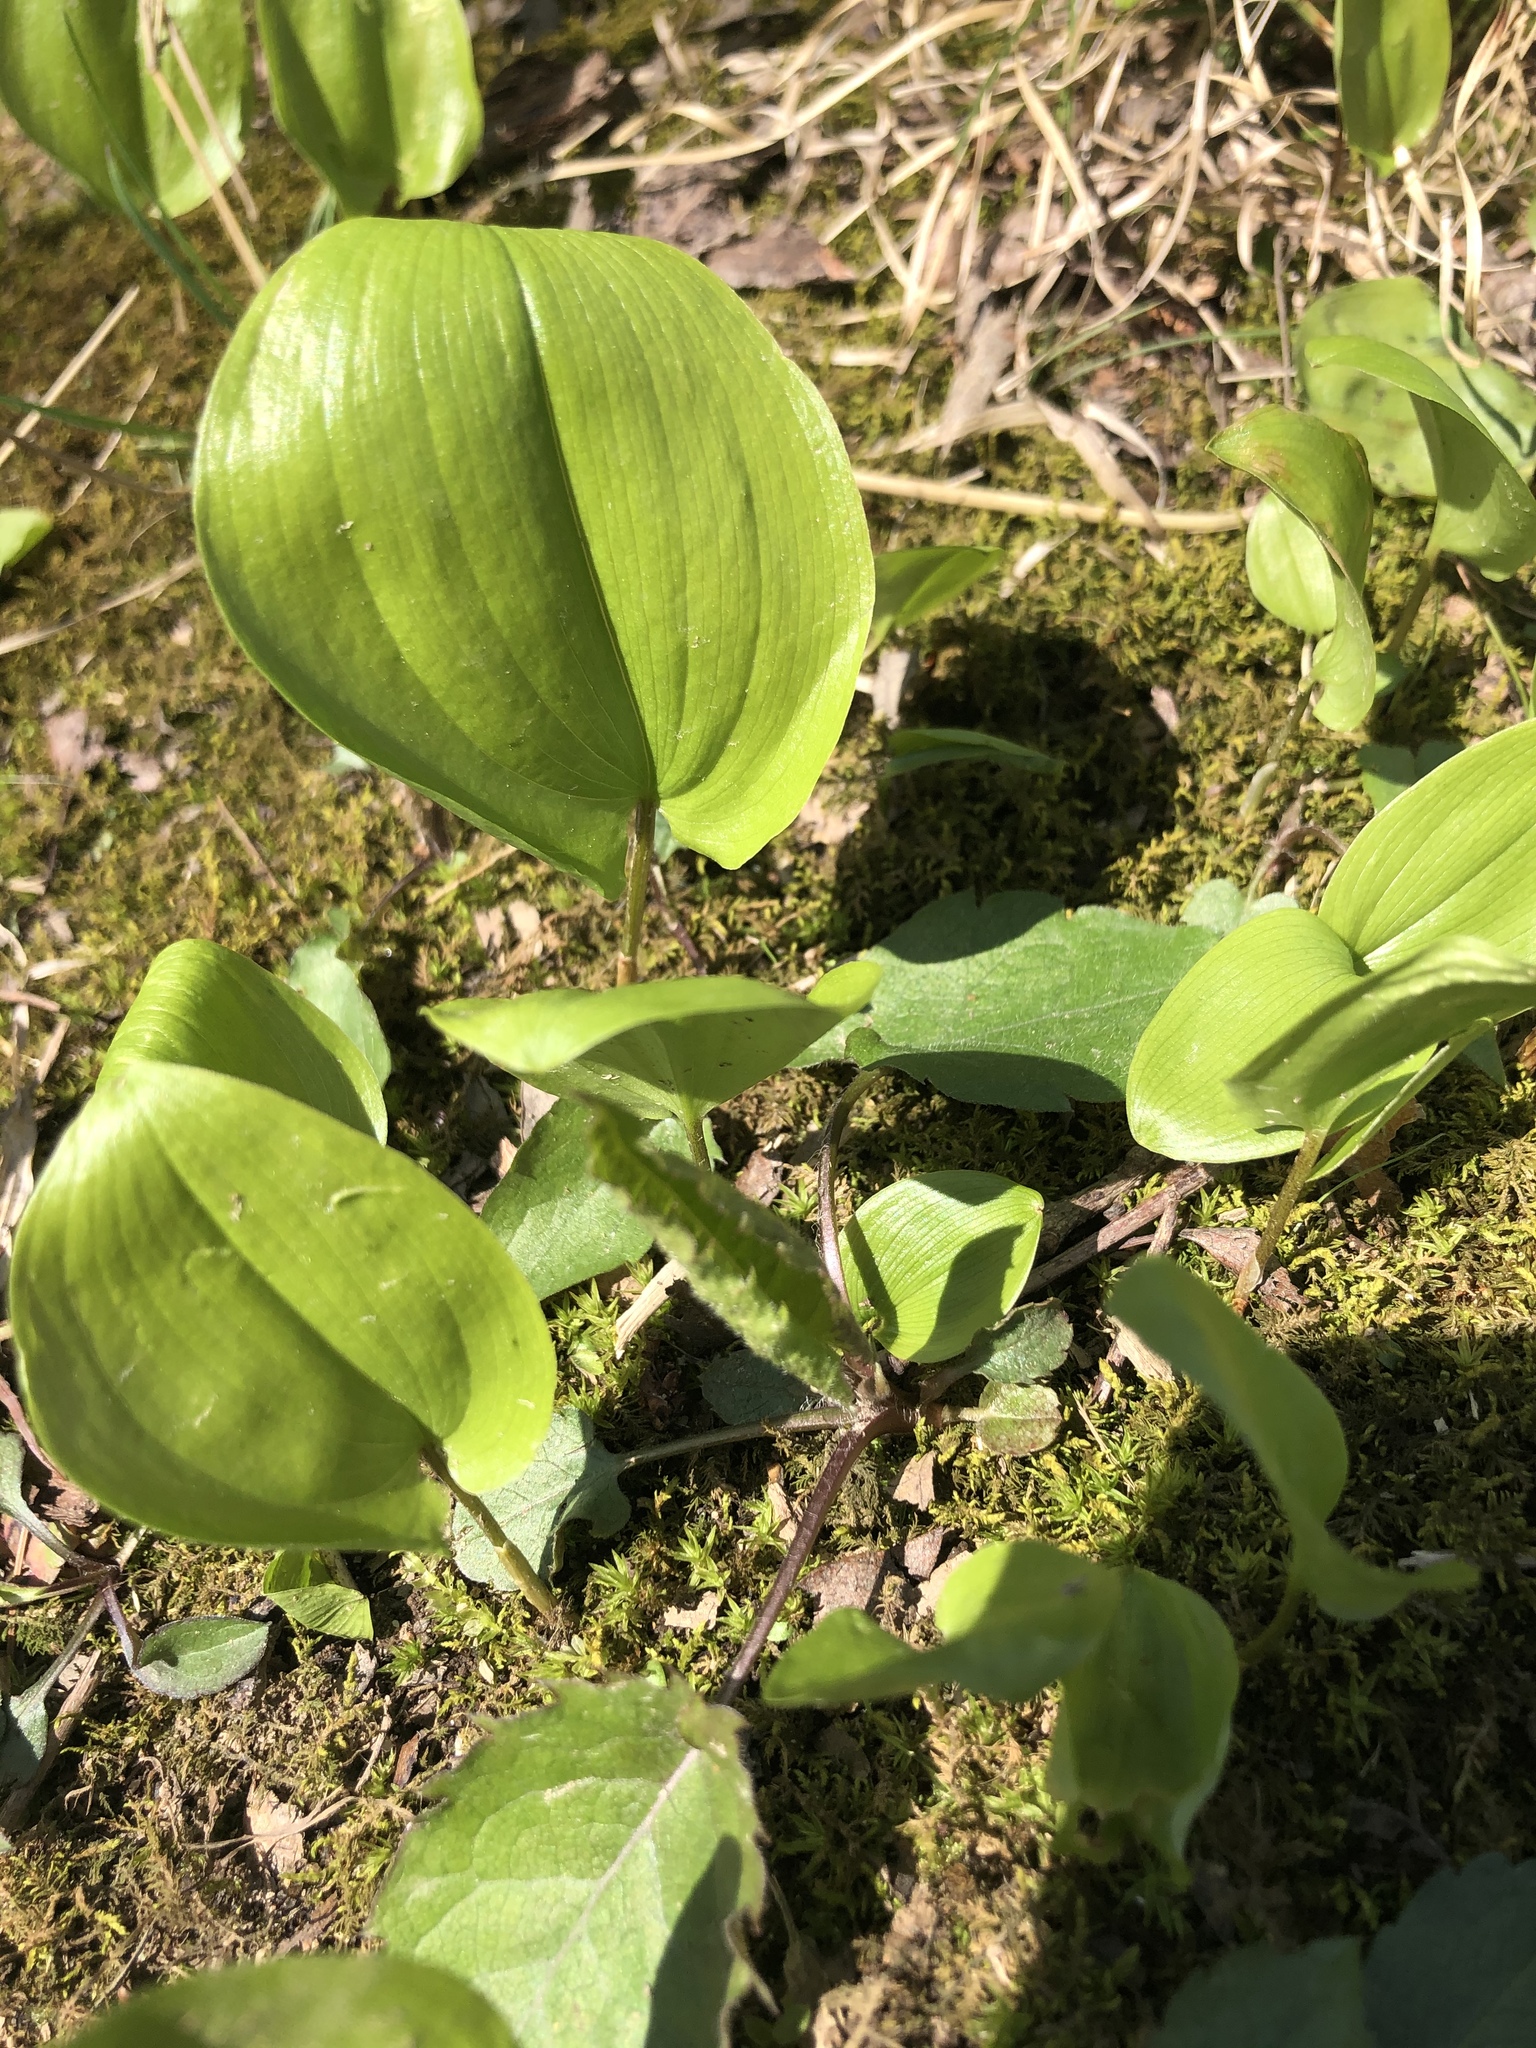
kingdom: Plantae
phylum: Tracheophyta
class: Liliopsida
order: Asparagales
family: Asparagaceae
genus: Maianthemum
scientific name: Maianthemum canadense
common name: False lily-of-the-valley
